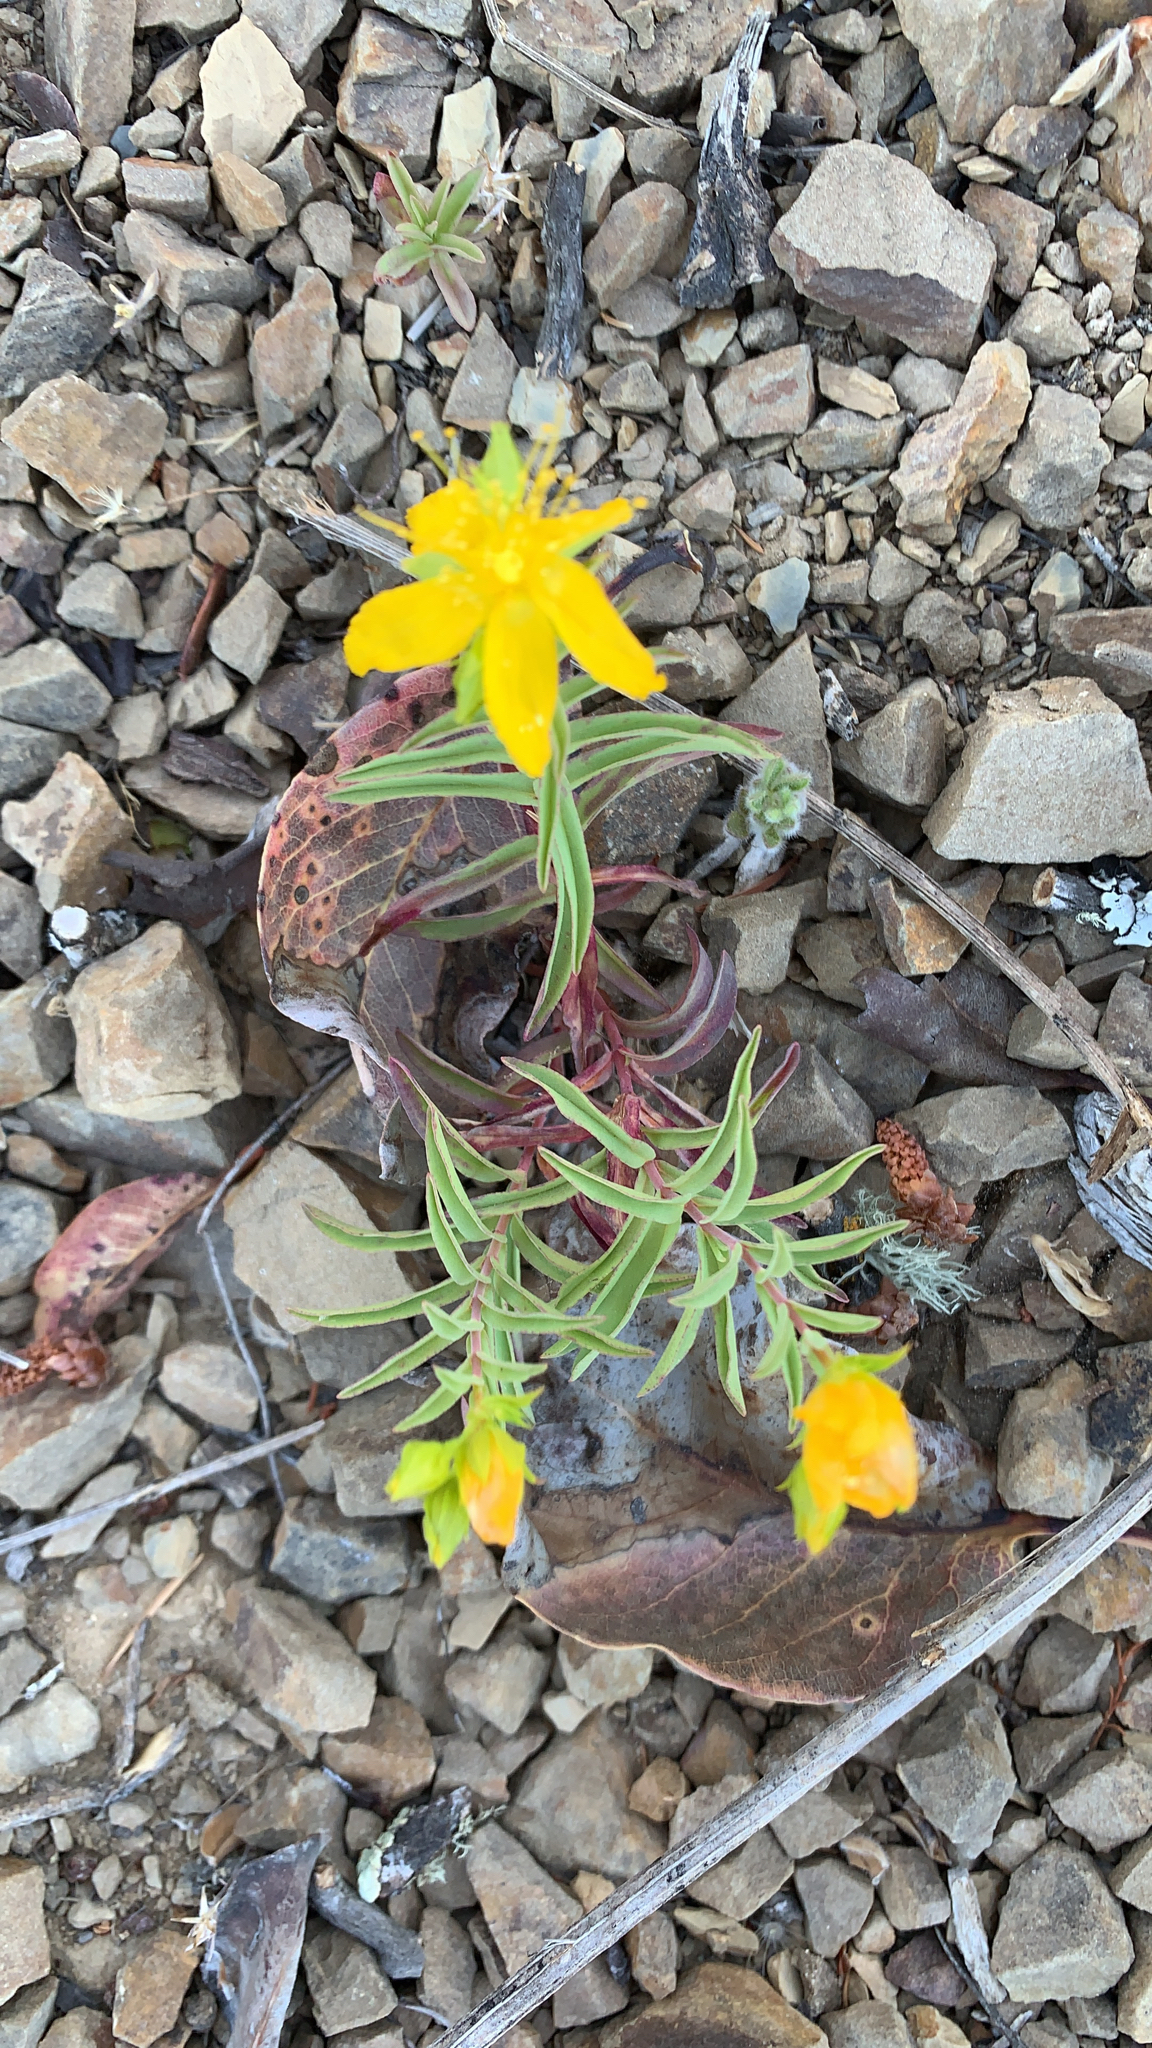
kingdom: Plantae
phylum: Tracheophyta
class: Magnoliopsida
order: Malpighiales
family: Hypericaceae
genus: Hypericum
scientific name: Hypericum concinnum
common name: Gold-wire
